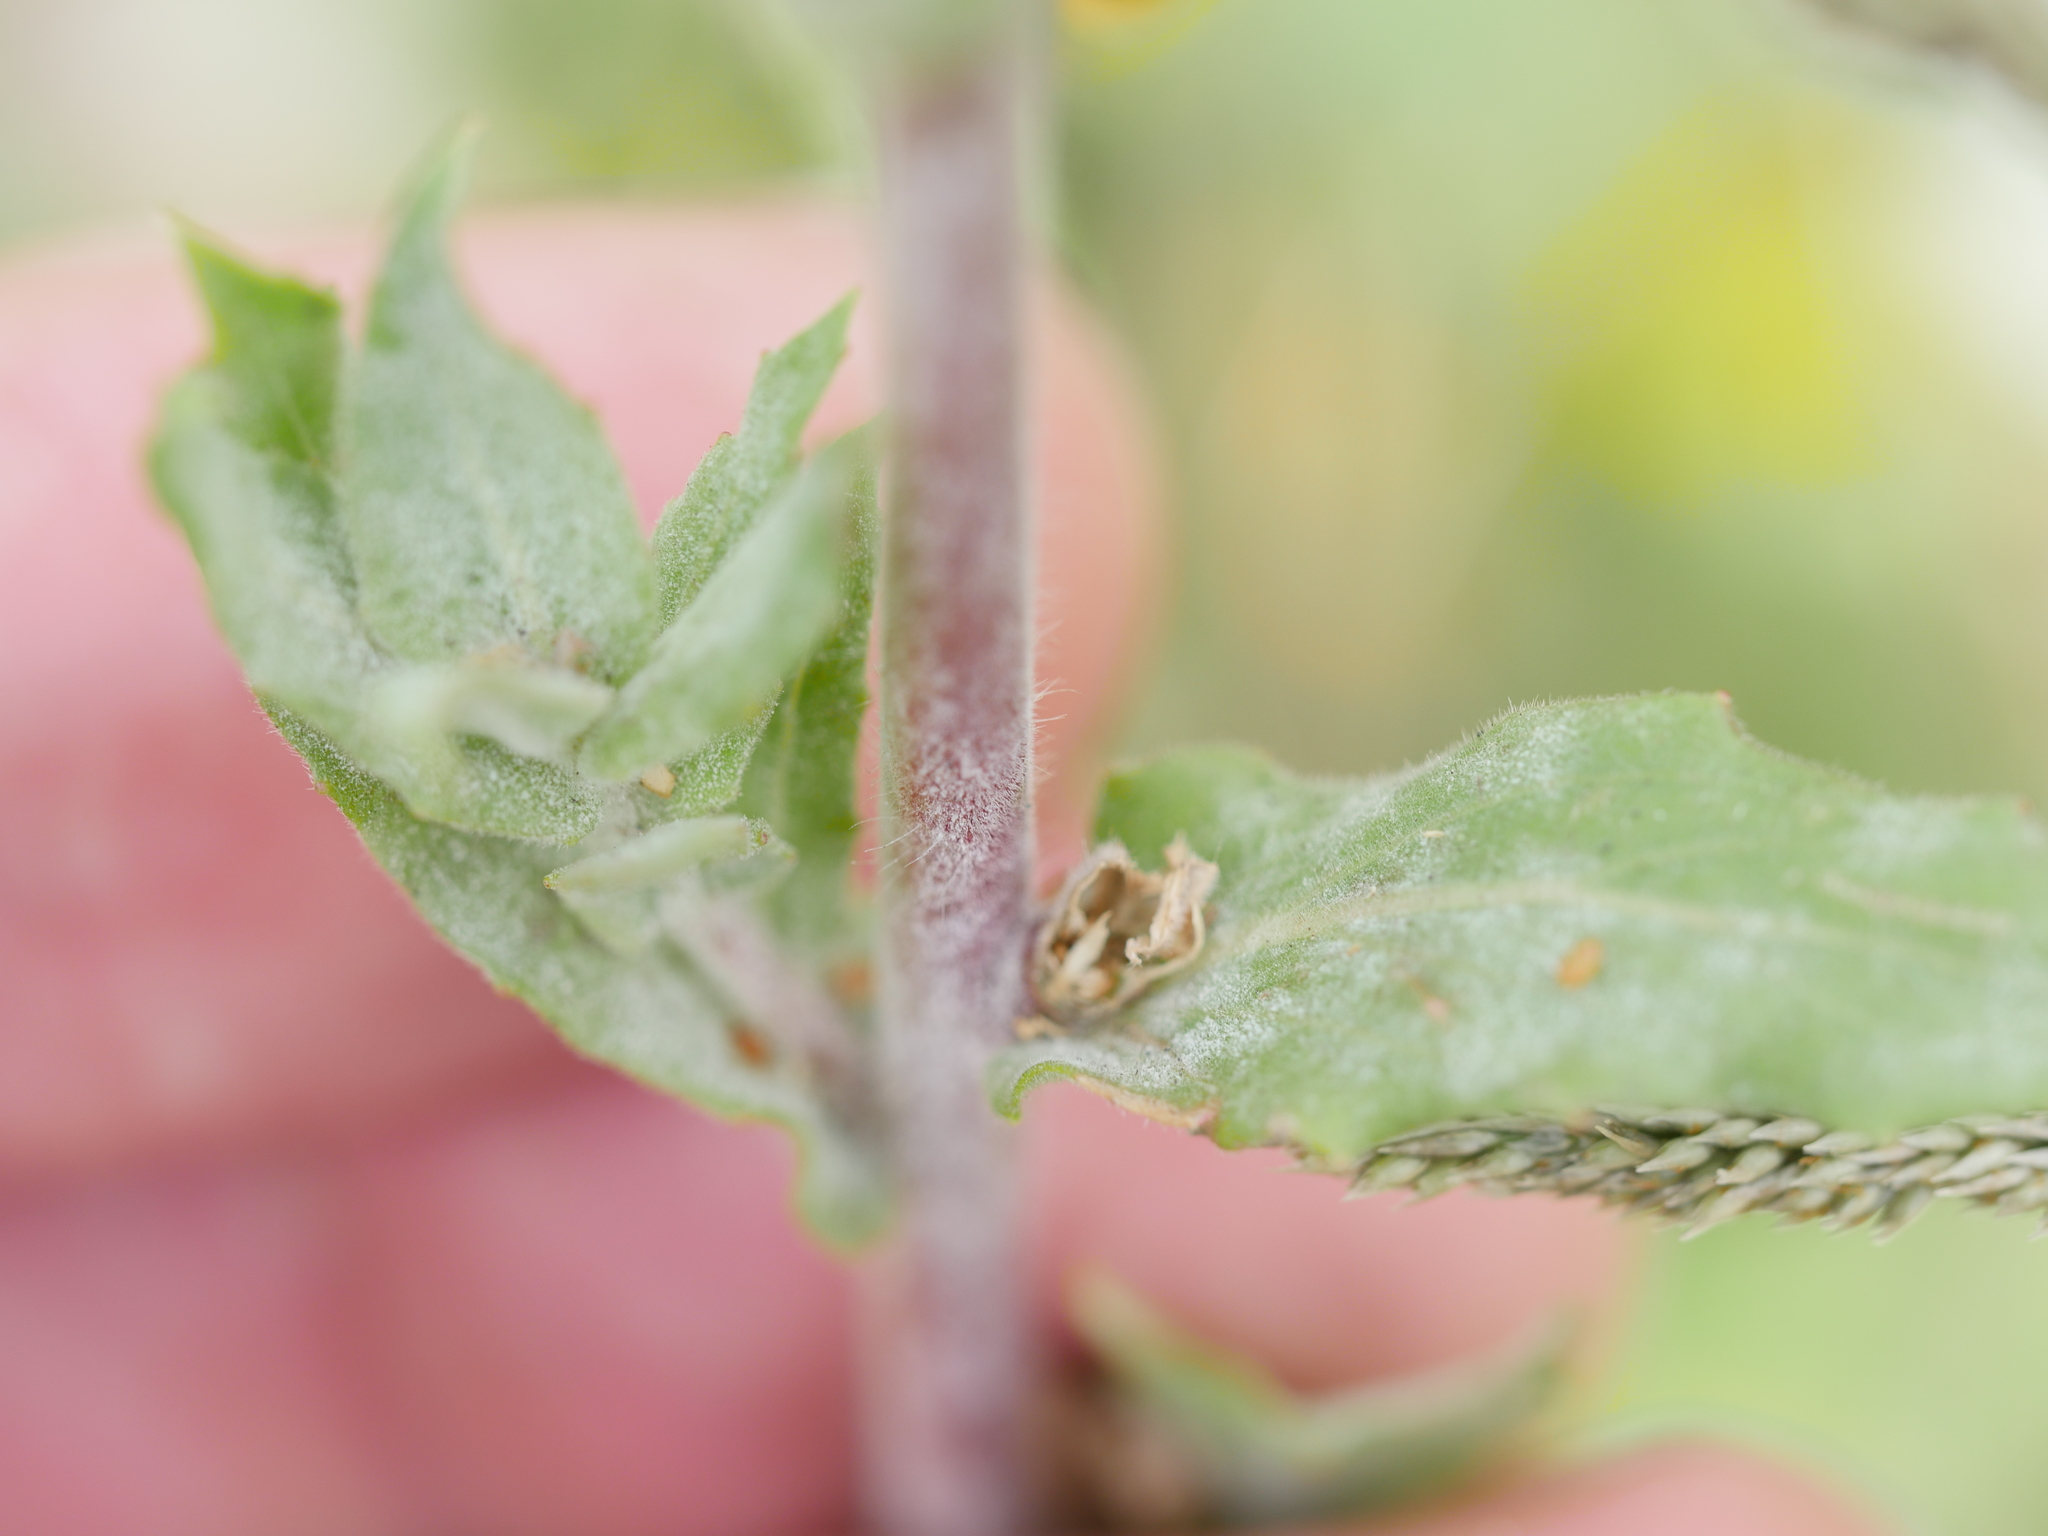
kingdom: Plantae
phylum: Tracheophyta
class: Magnoliopsida
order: Myrtales
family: Onagraceae
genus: Oenothera
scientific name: Oenothera stricta
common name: Fragrant evening-primrose
